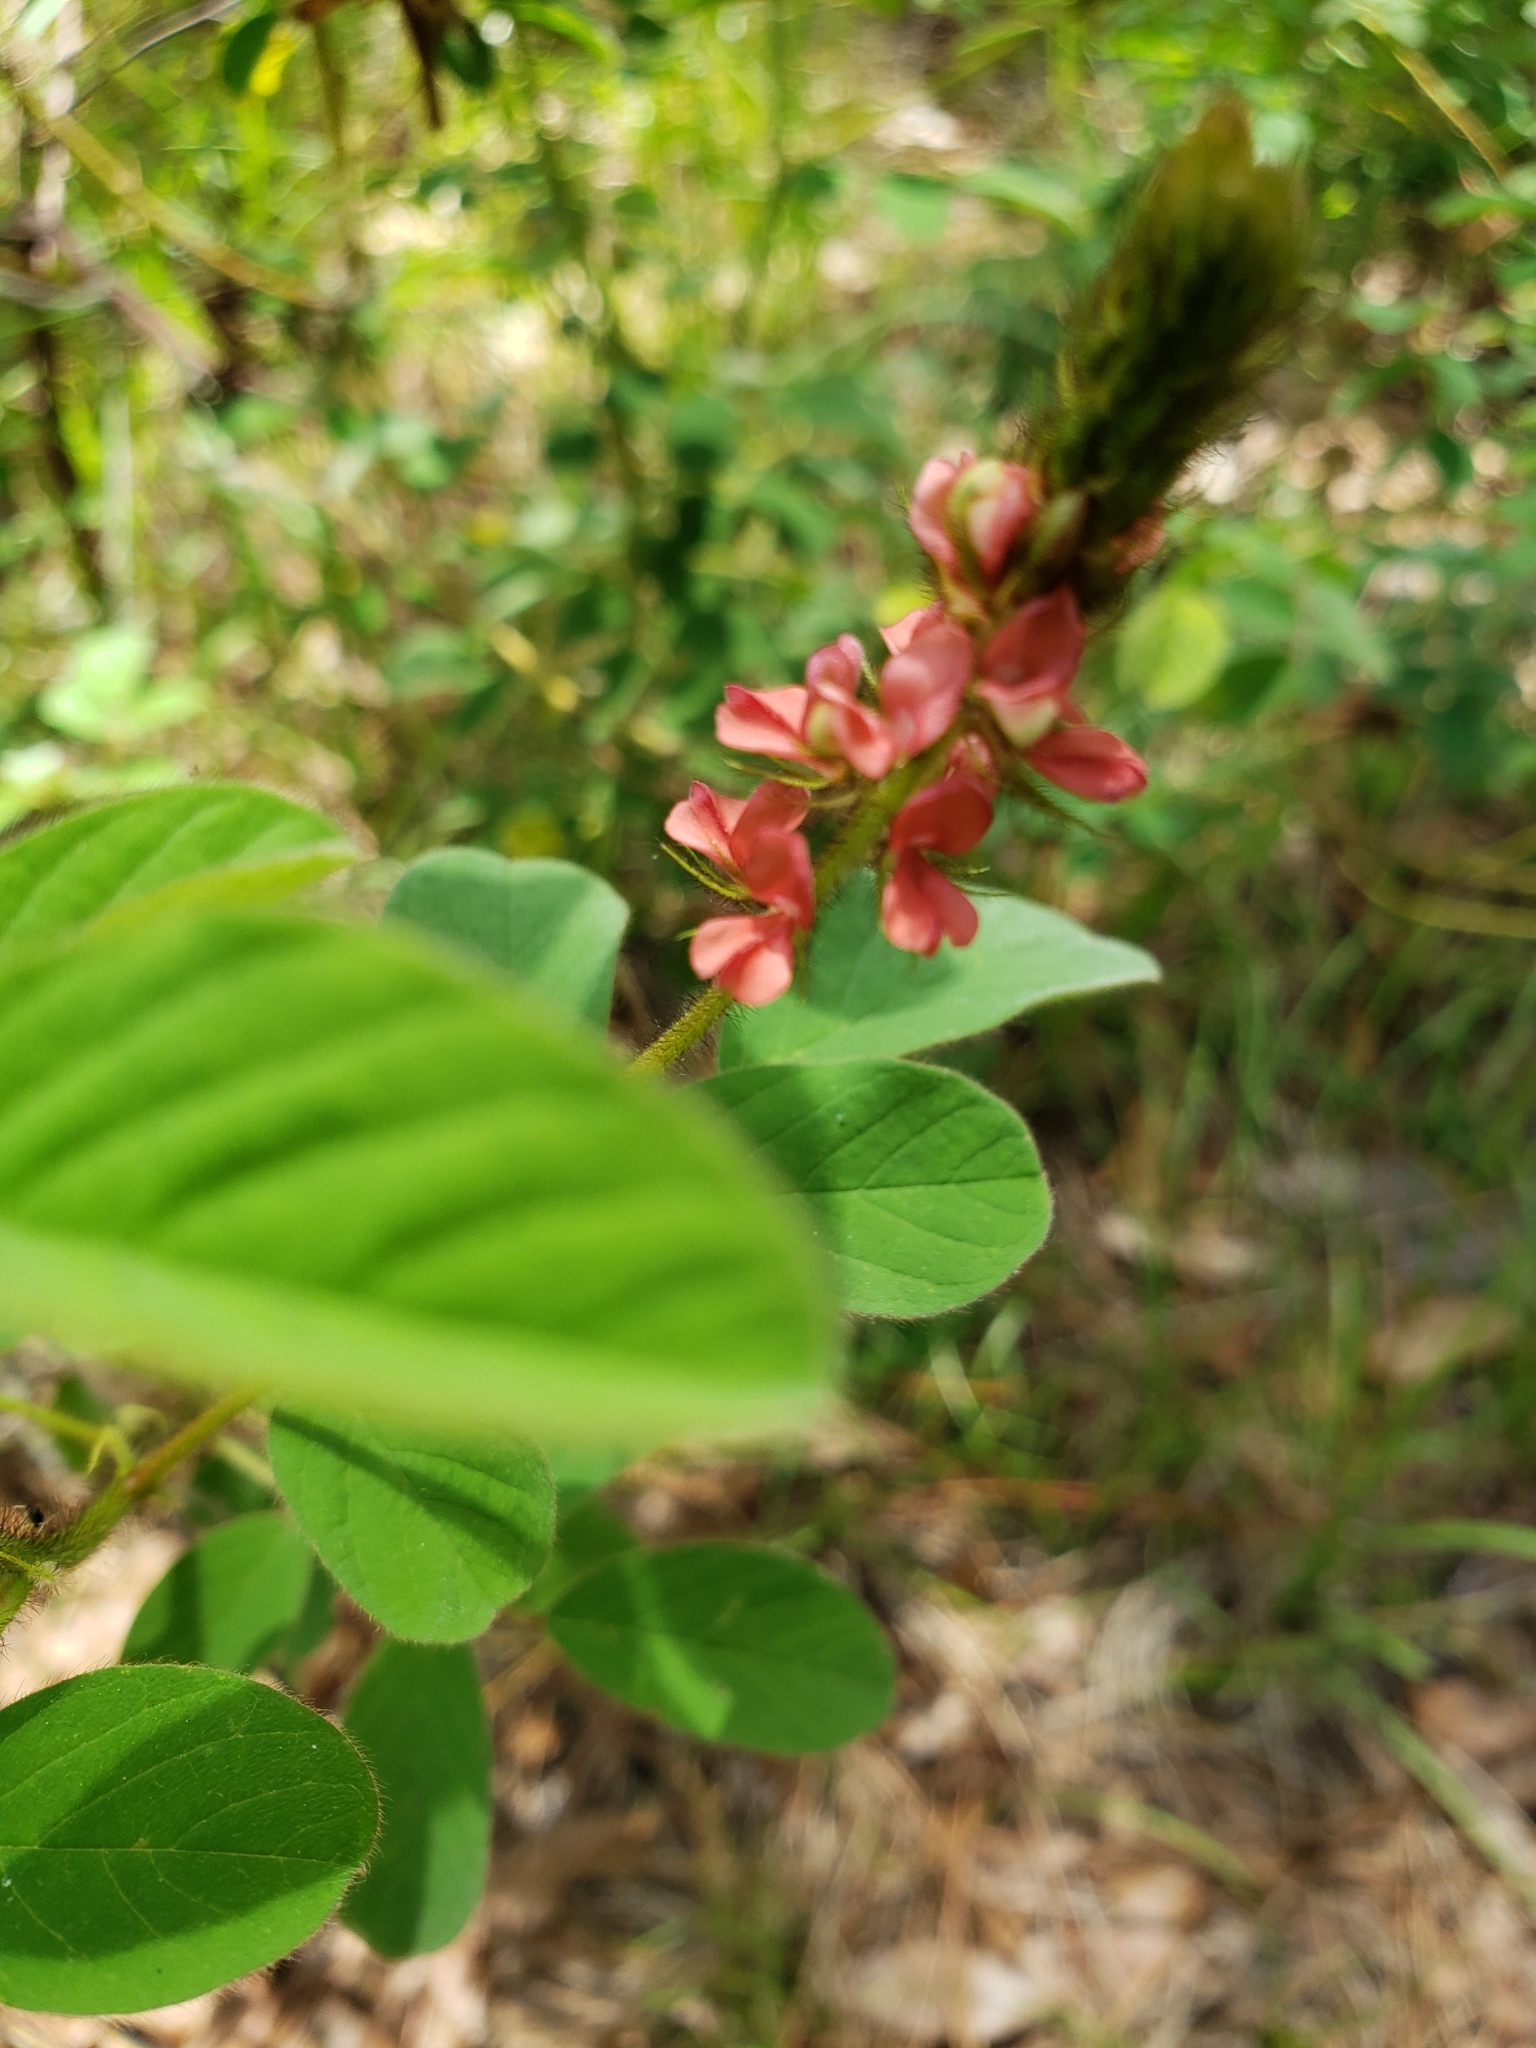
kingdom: Plantae
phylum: Tracheophyta
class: Magnoliopsida
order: Fabales
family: Fabaceae
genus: Indigofera
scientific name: Indigofera hirsuta
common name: Hairy indigo
